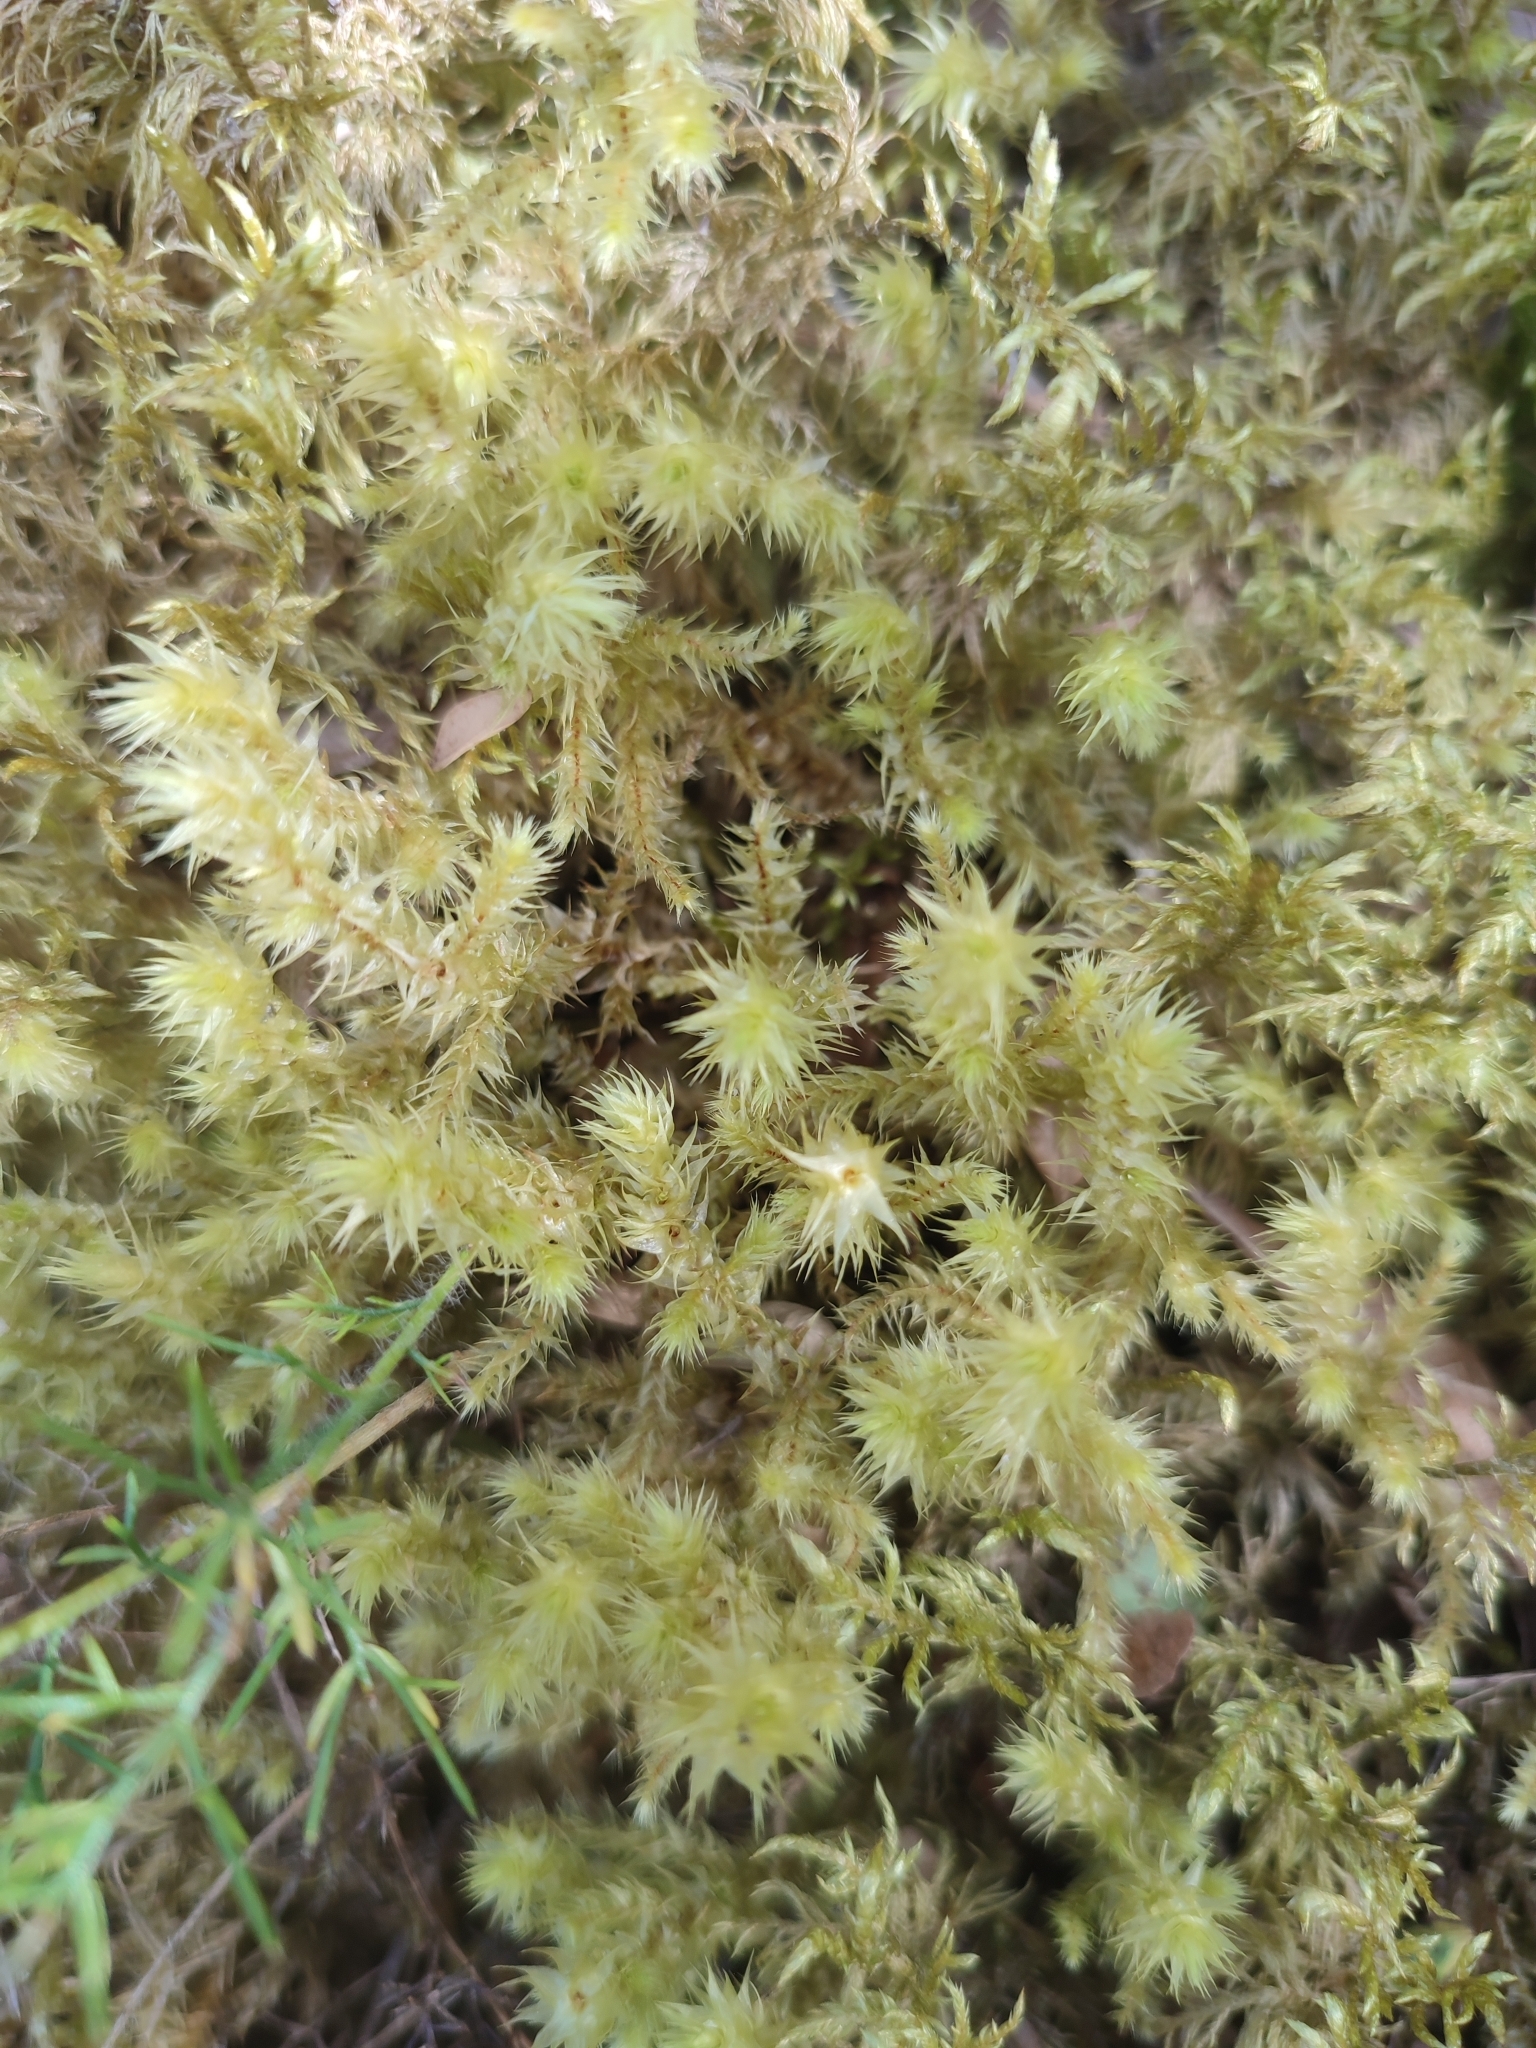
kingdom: Plantae
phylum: Bryophyta
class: Bryopsida
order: Hypnales
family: Hylocomiaceae
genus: Hylocomiadelphus
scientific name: Hylocomiadelphus triquetrus
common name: Rough goose neck moss
